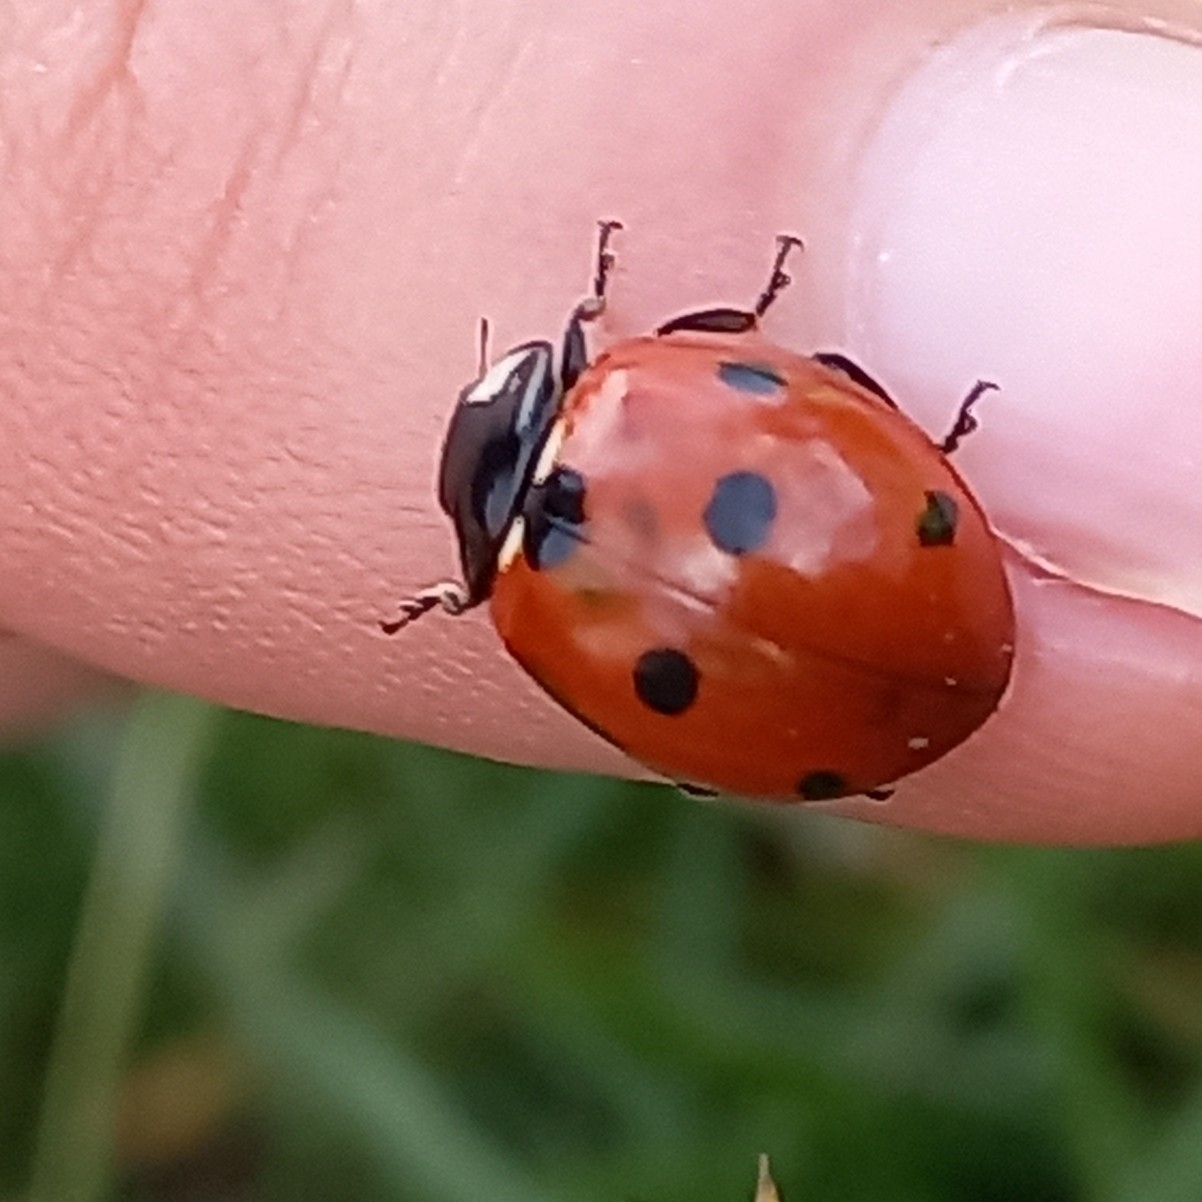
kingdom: Animalia
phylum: Arthropoda
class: Insecta
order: Coleoptera
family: Coccinellidae
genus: Coccinella
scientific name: Coccinella septempunctata
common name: Sevenspotted lady beetle
